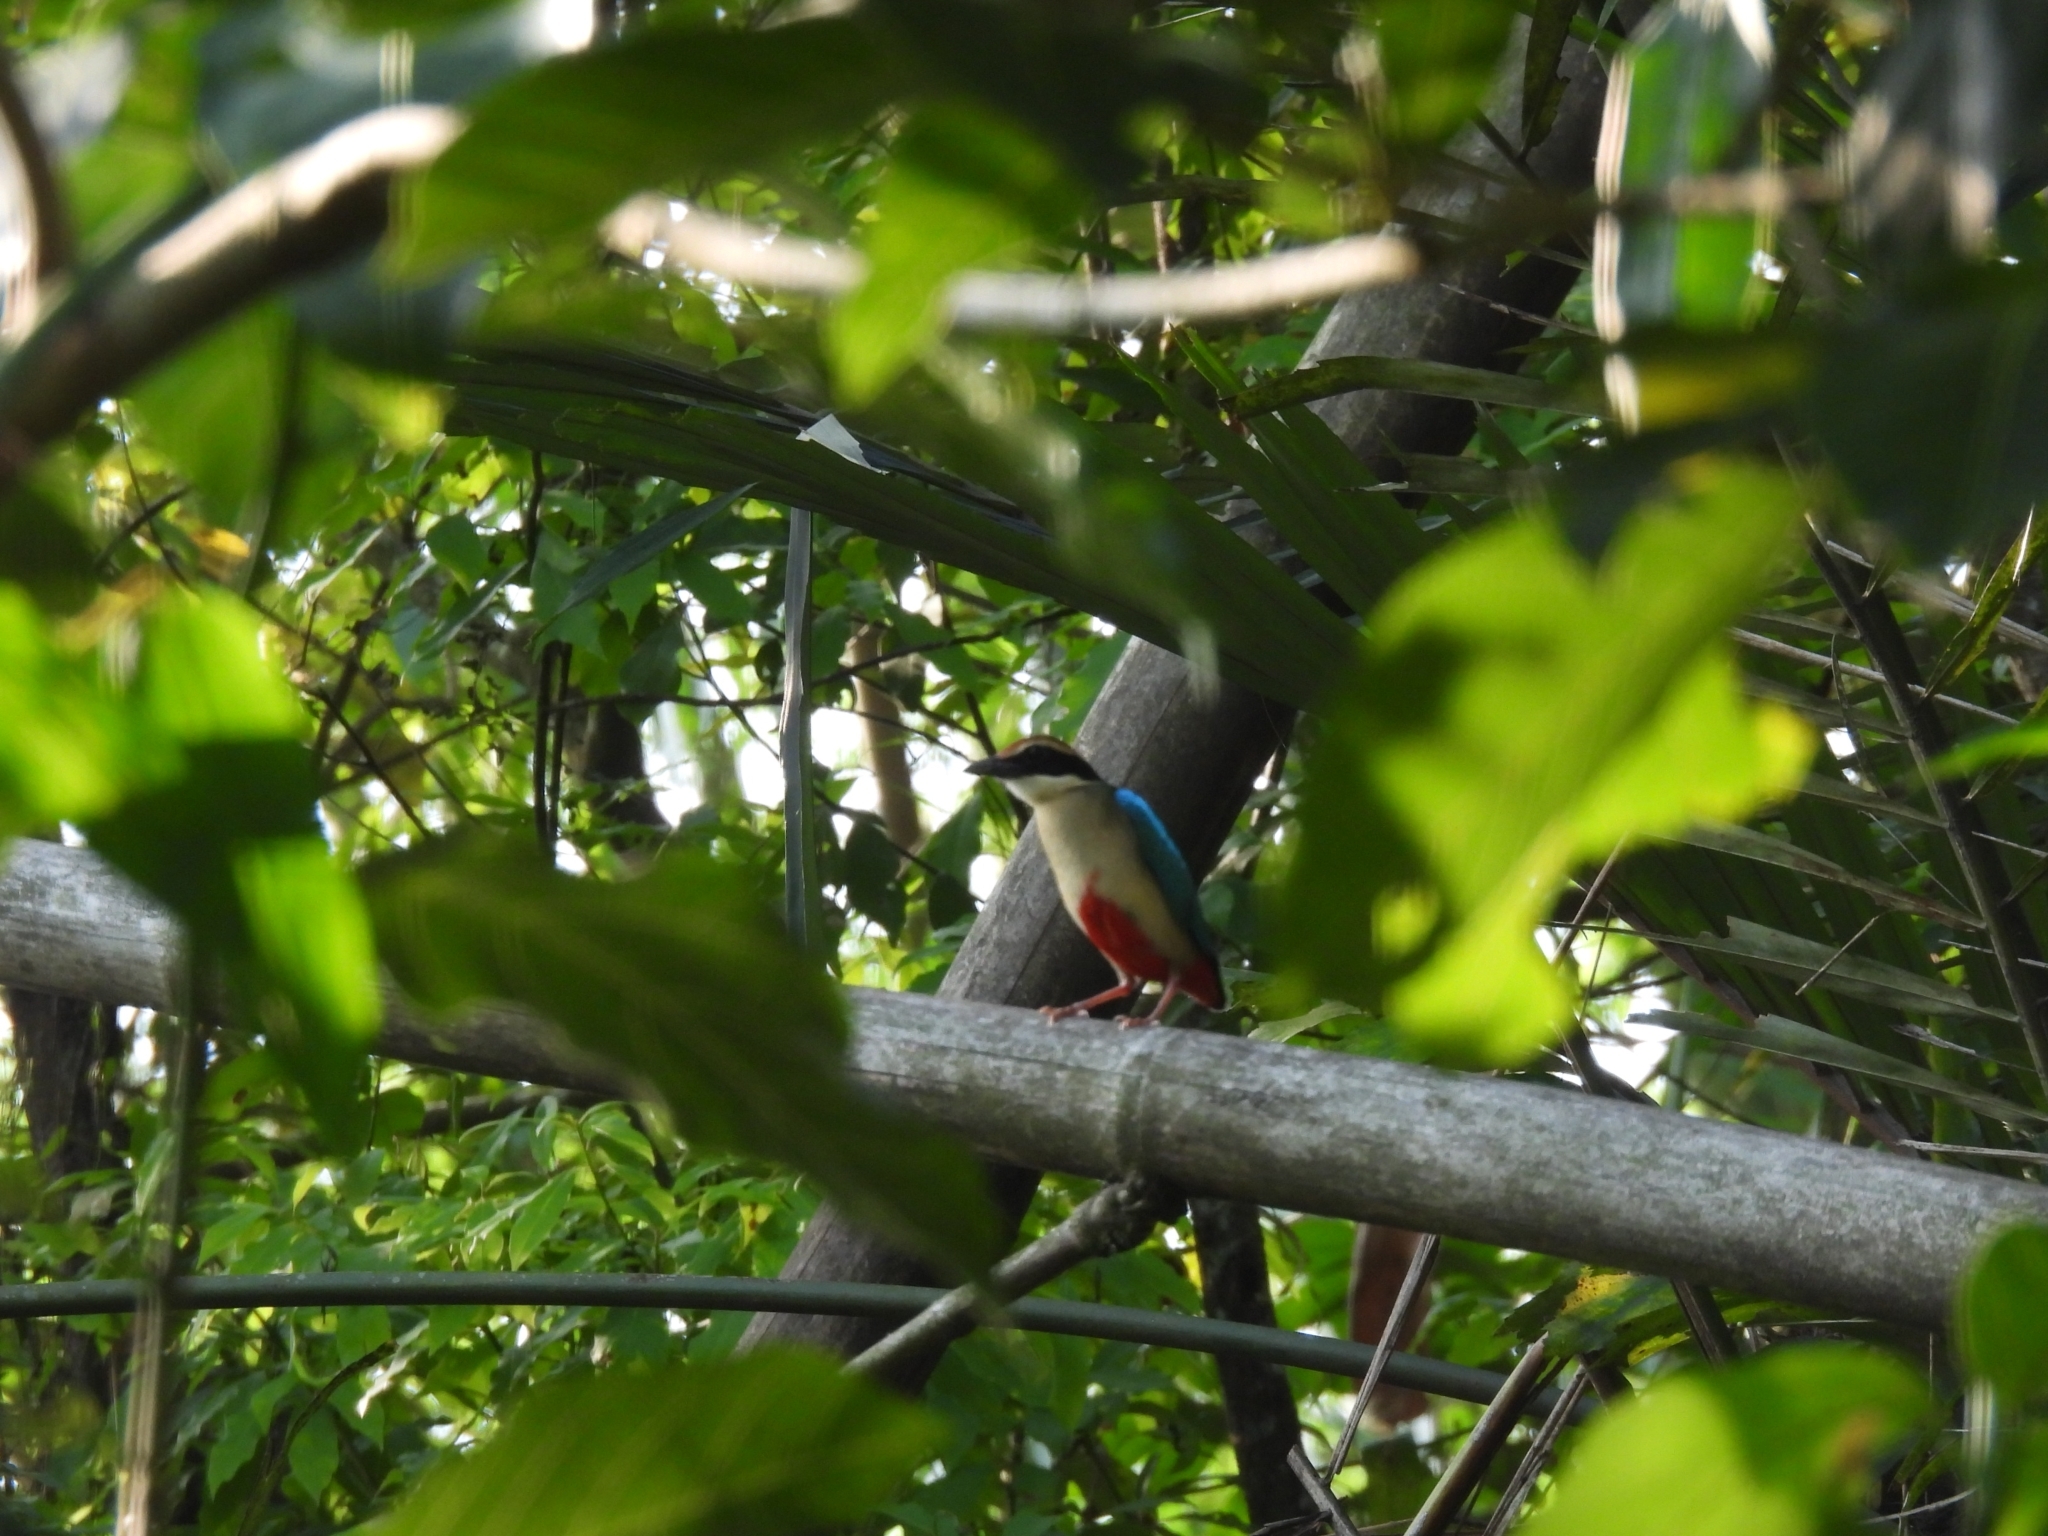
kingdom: Animalia
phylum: Chordata
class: Aves
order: Passeriformes
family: Pittidae
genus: Pitta
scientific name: Pitta nympha
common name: Fairy pitta
